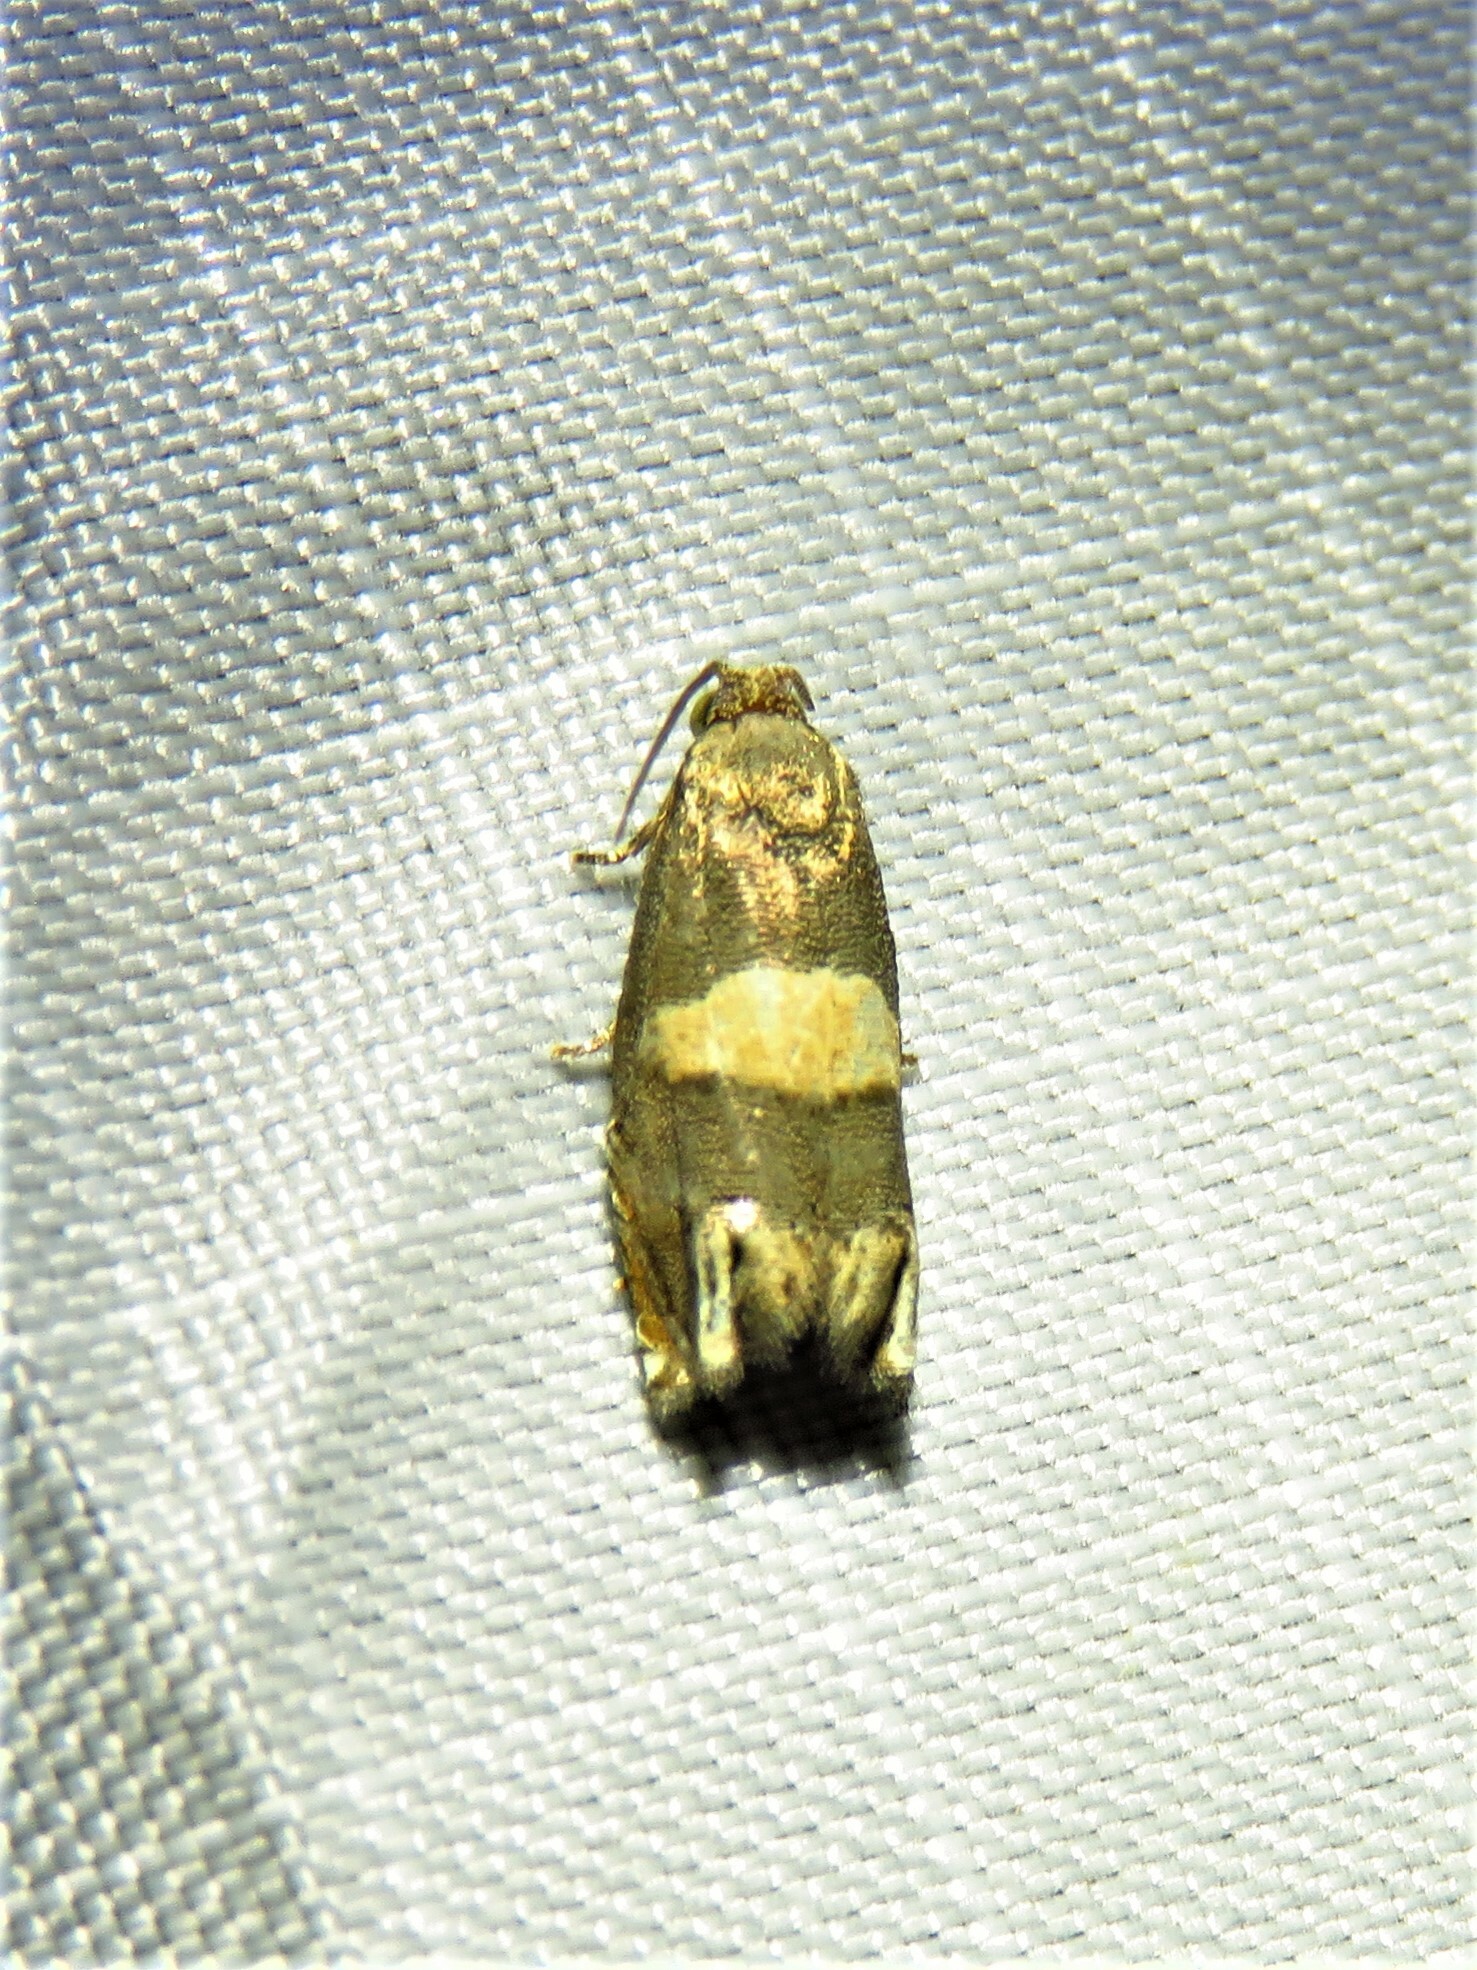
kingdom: Animalia
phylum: Arthropoda
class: Insecta
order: Lepidoptera
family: Tortricidae
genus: Epiblema
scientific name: Epiblema
